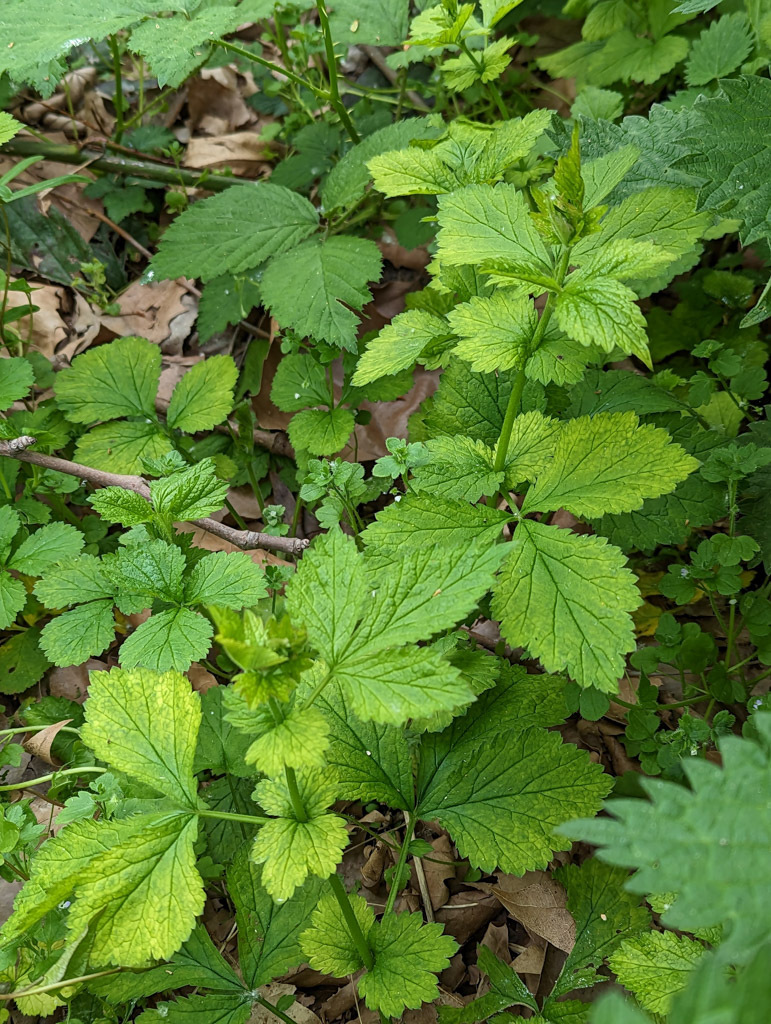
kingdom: Plantae
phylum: Tracheophyta
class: Magnoliopsida
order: Rosales
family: Rosaceae
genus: Geum
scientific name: Geum urbanum
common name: Wood avens
